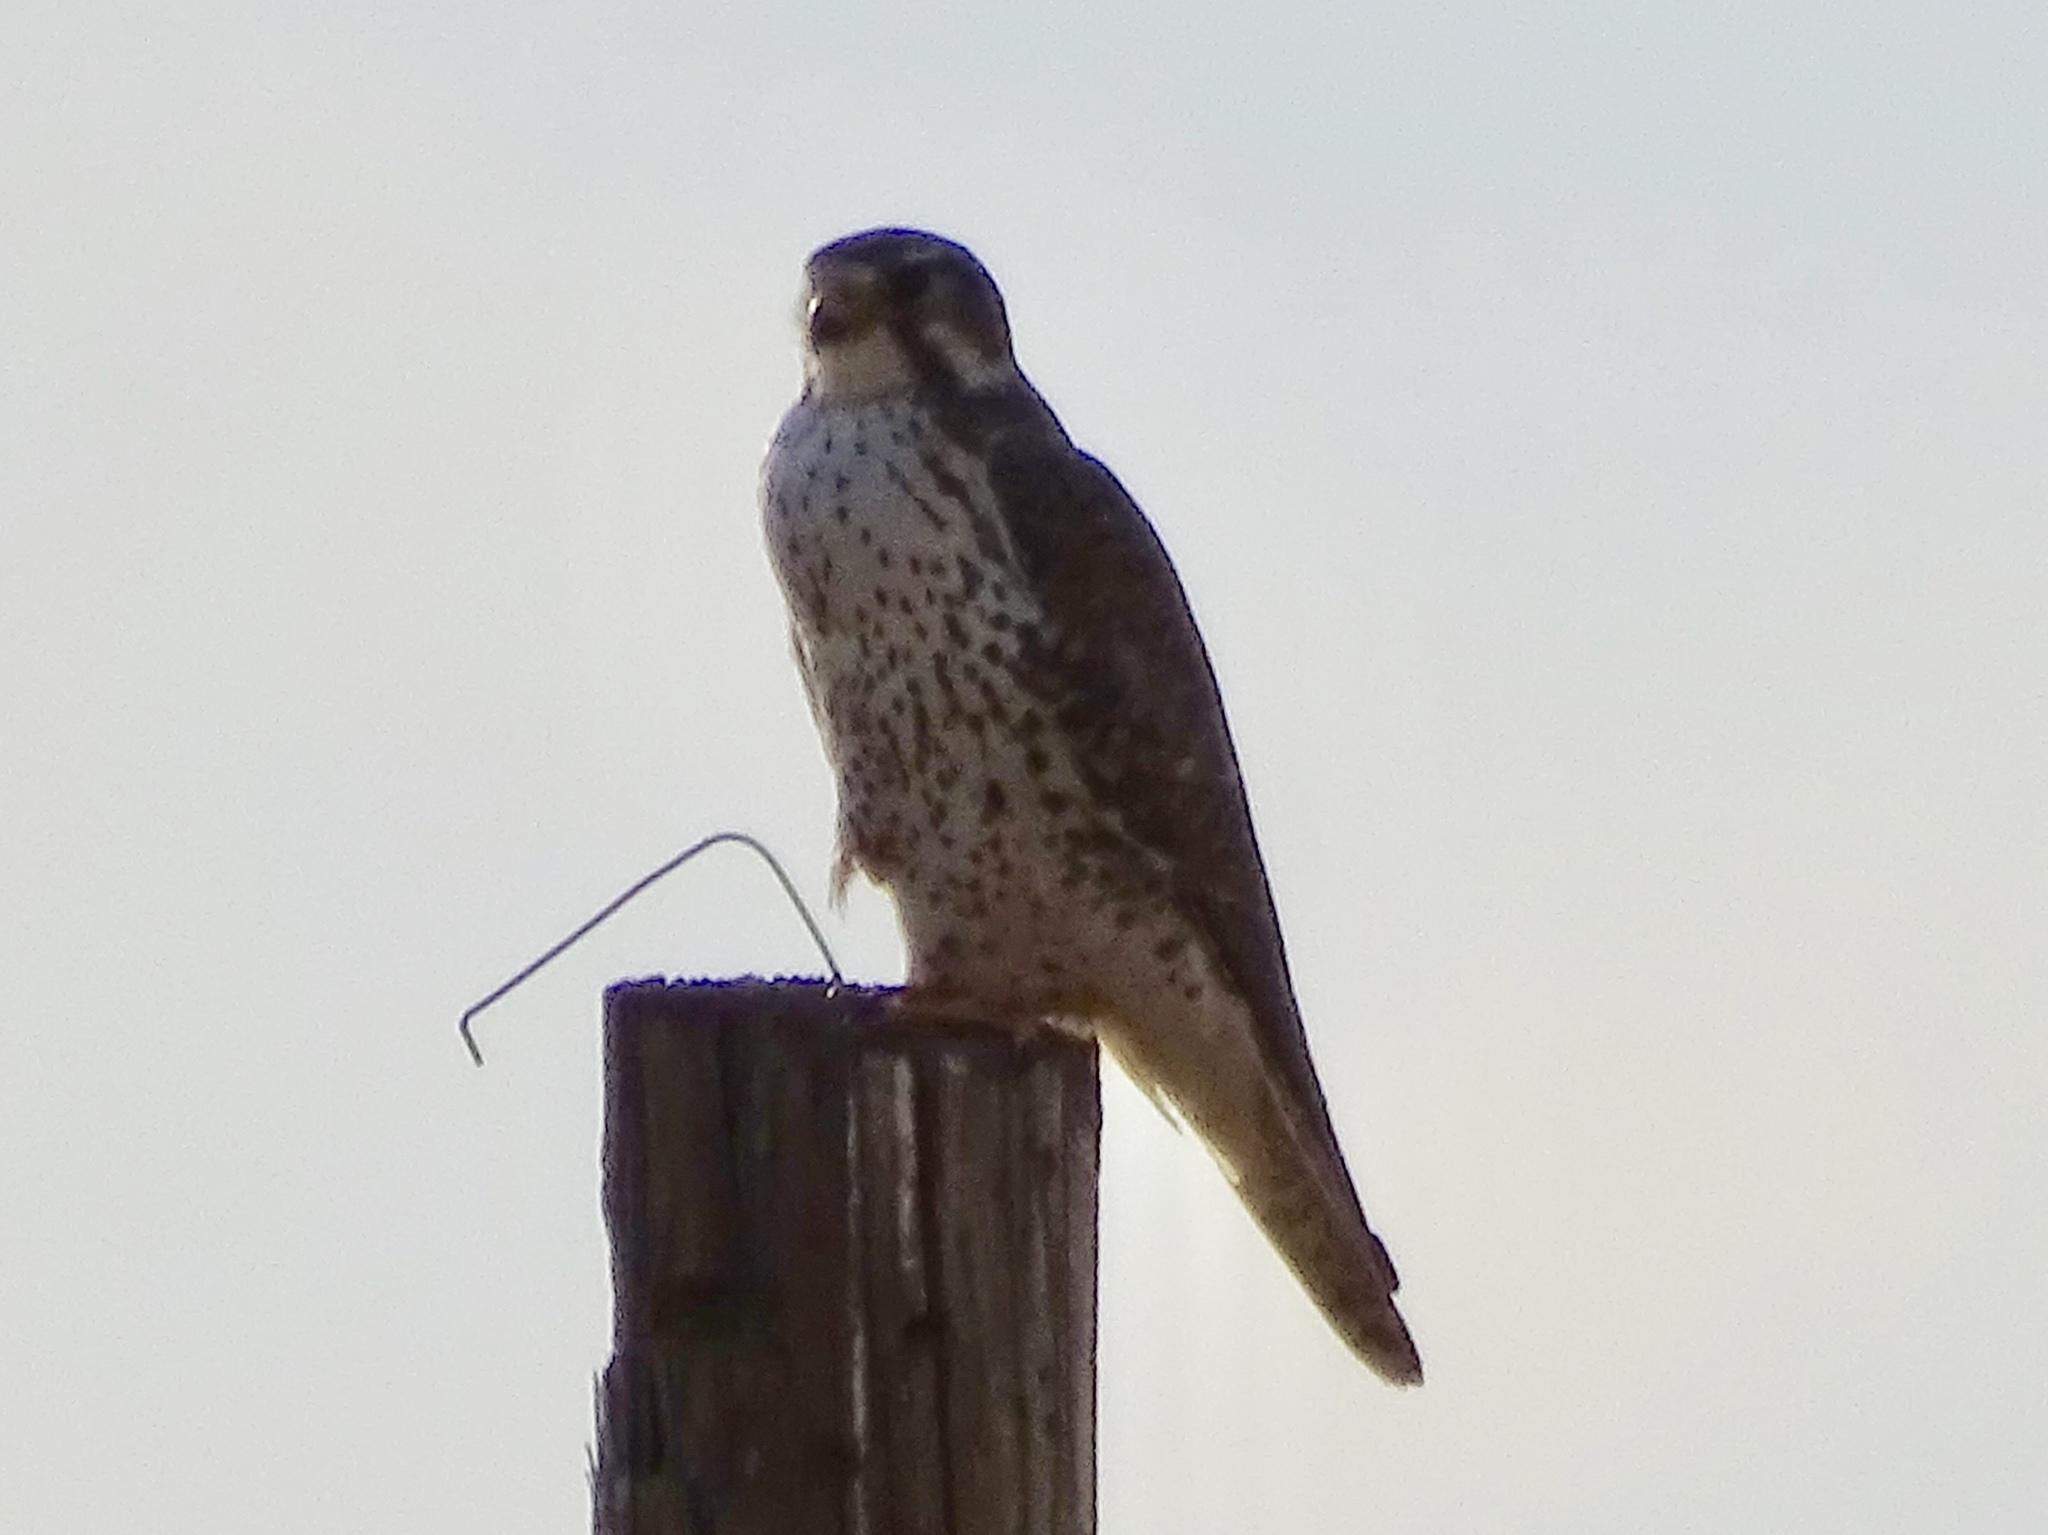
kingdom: Animalia
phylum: Chordata
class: Aves
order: Falconiformes
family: Falconidae
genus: Falco
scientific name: Falco mexicanus
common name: Prairie falcon
